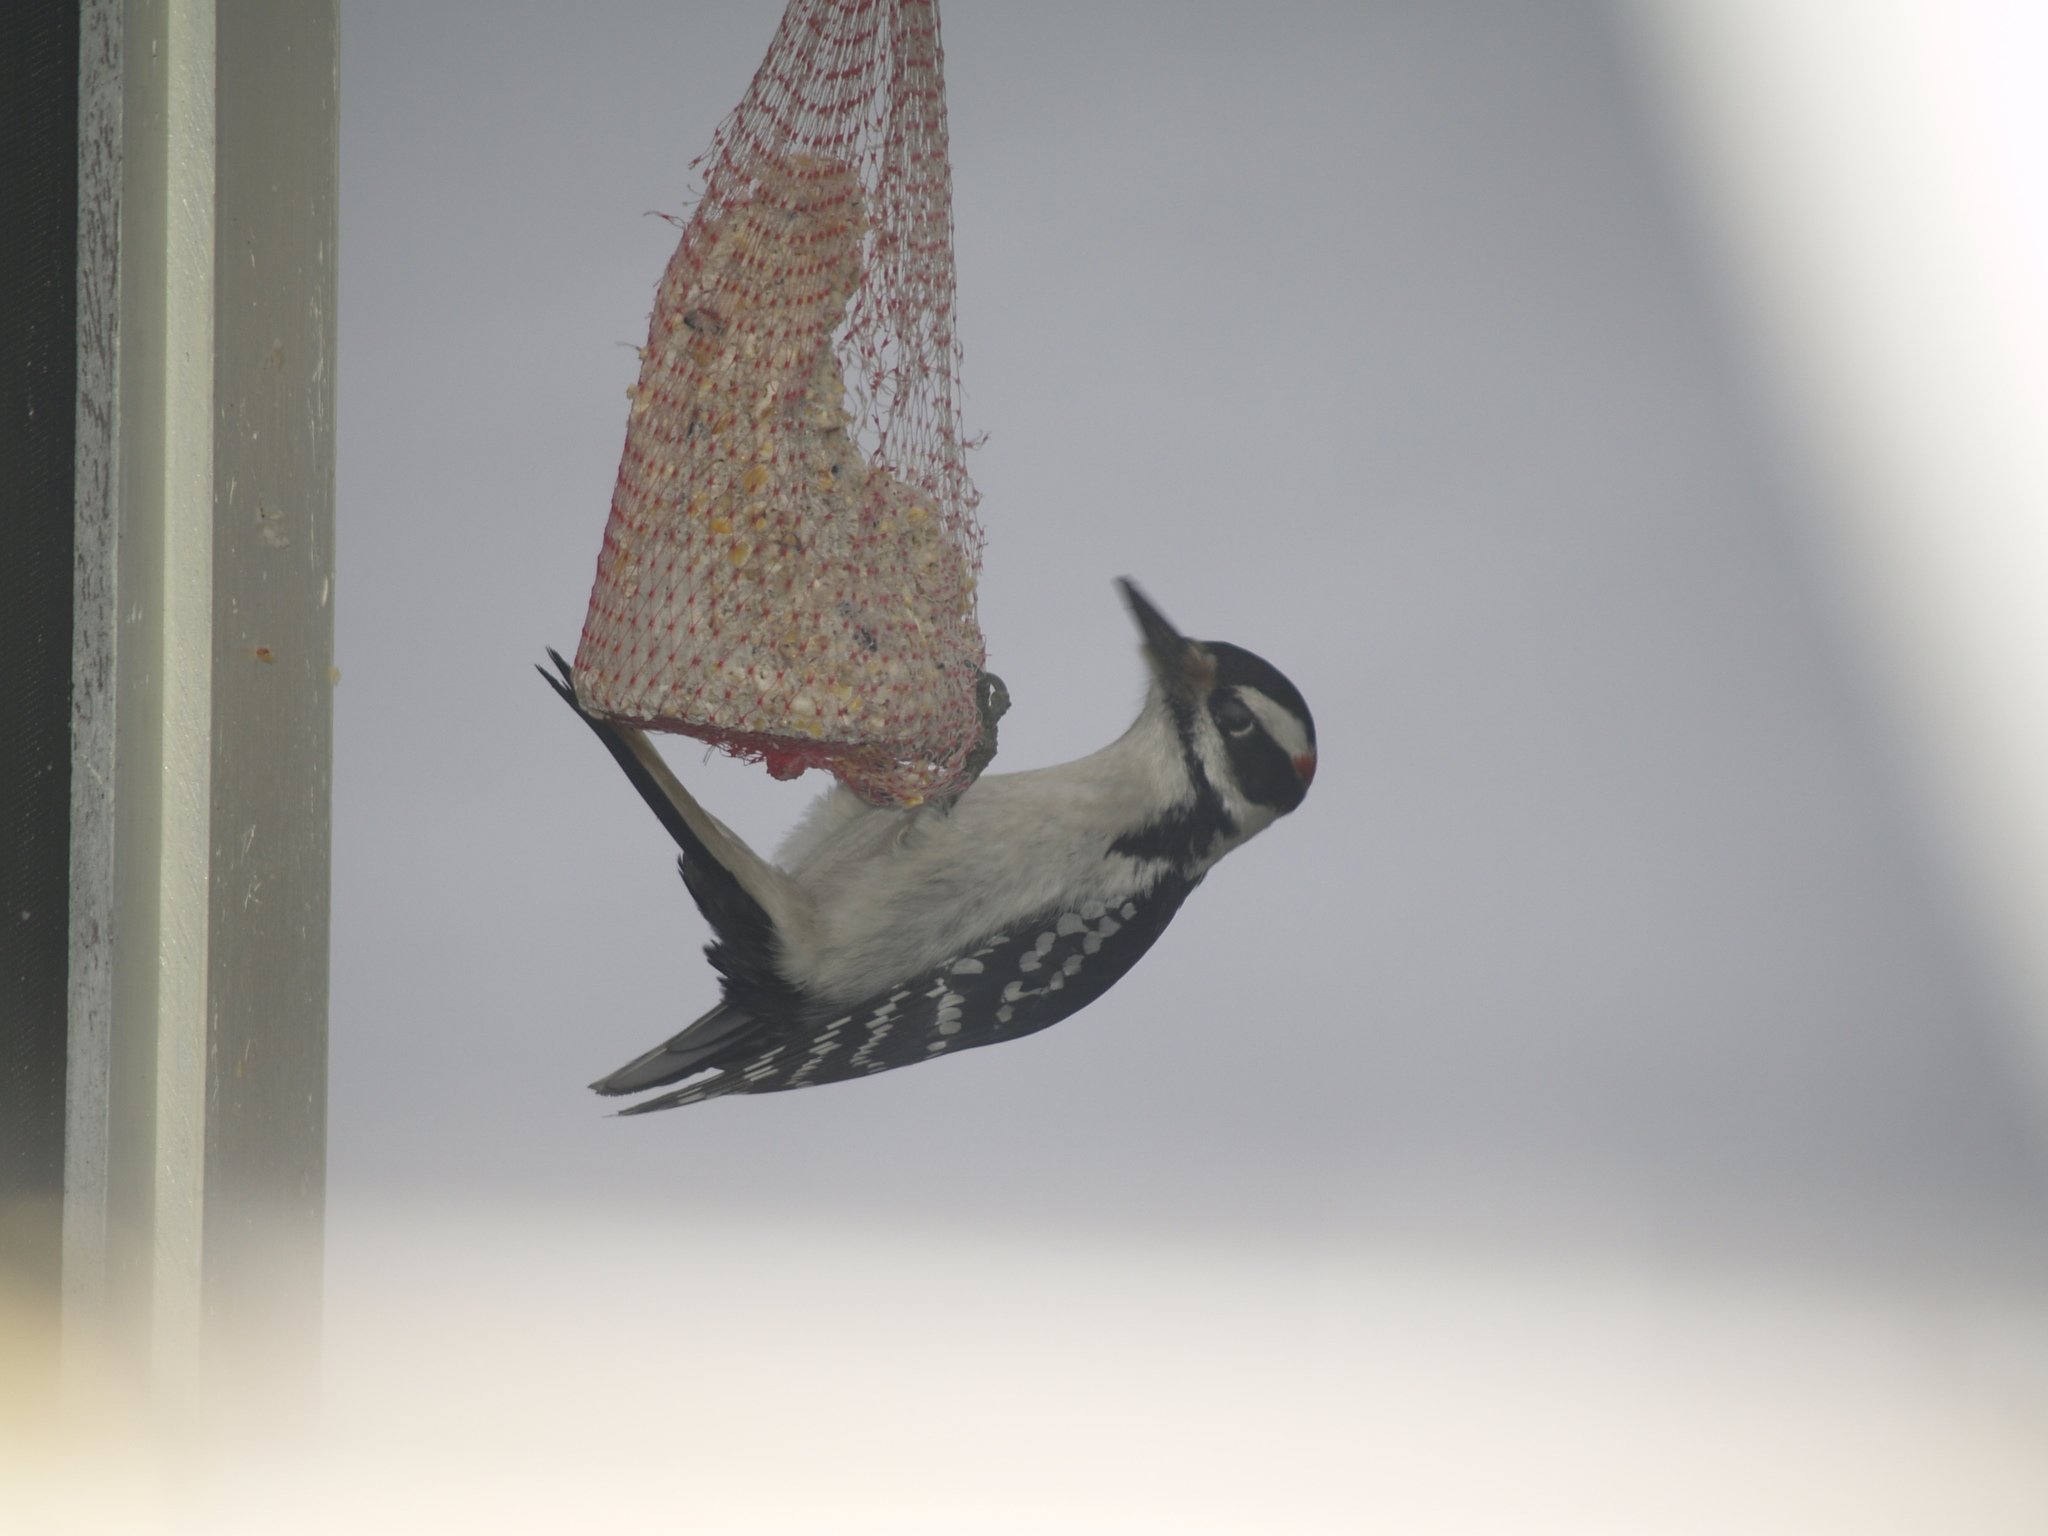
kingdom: Animalia
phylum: Chordata
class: Aves
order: Piciformes
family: Picidae
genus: Leuconotopicus
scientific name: Leuconotopicus villosus
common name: Hairy woodpecker
